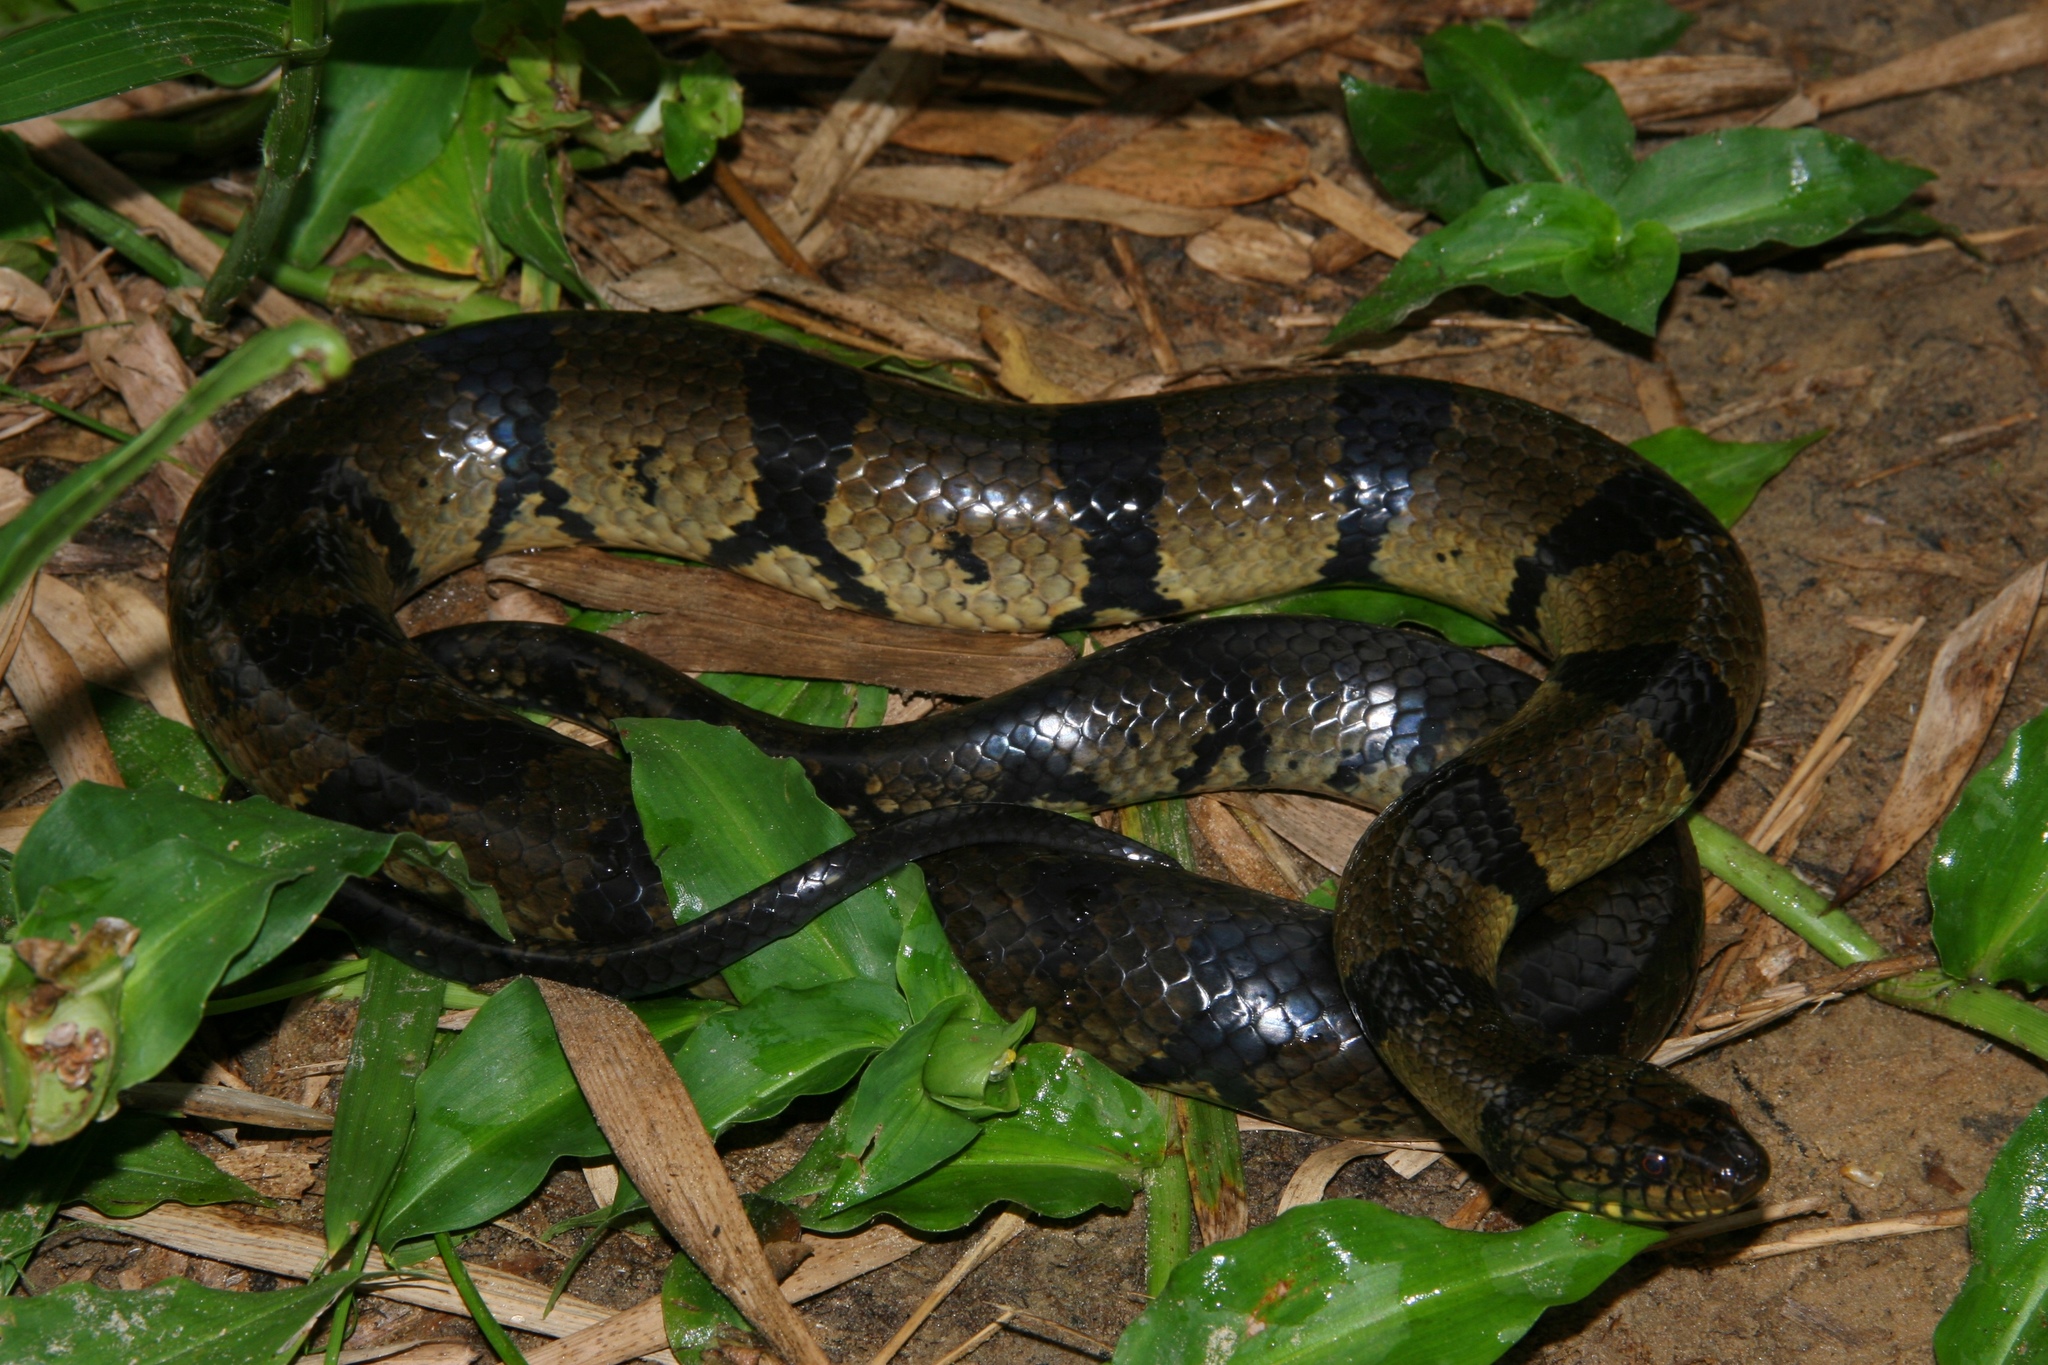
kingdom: Animalia
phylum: Chordata
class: Squamata
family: Colubridae
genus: Grayia
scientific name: Grayia ornata
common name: Ornate african water snake
